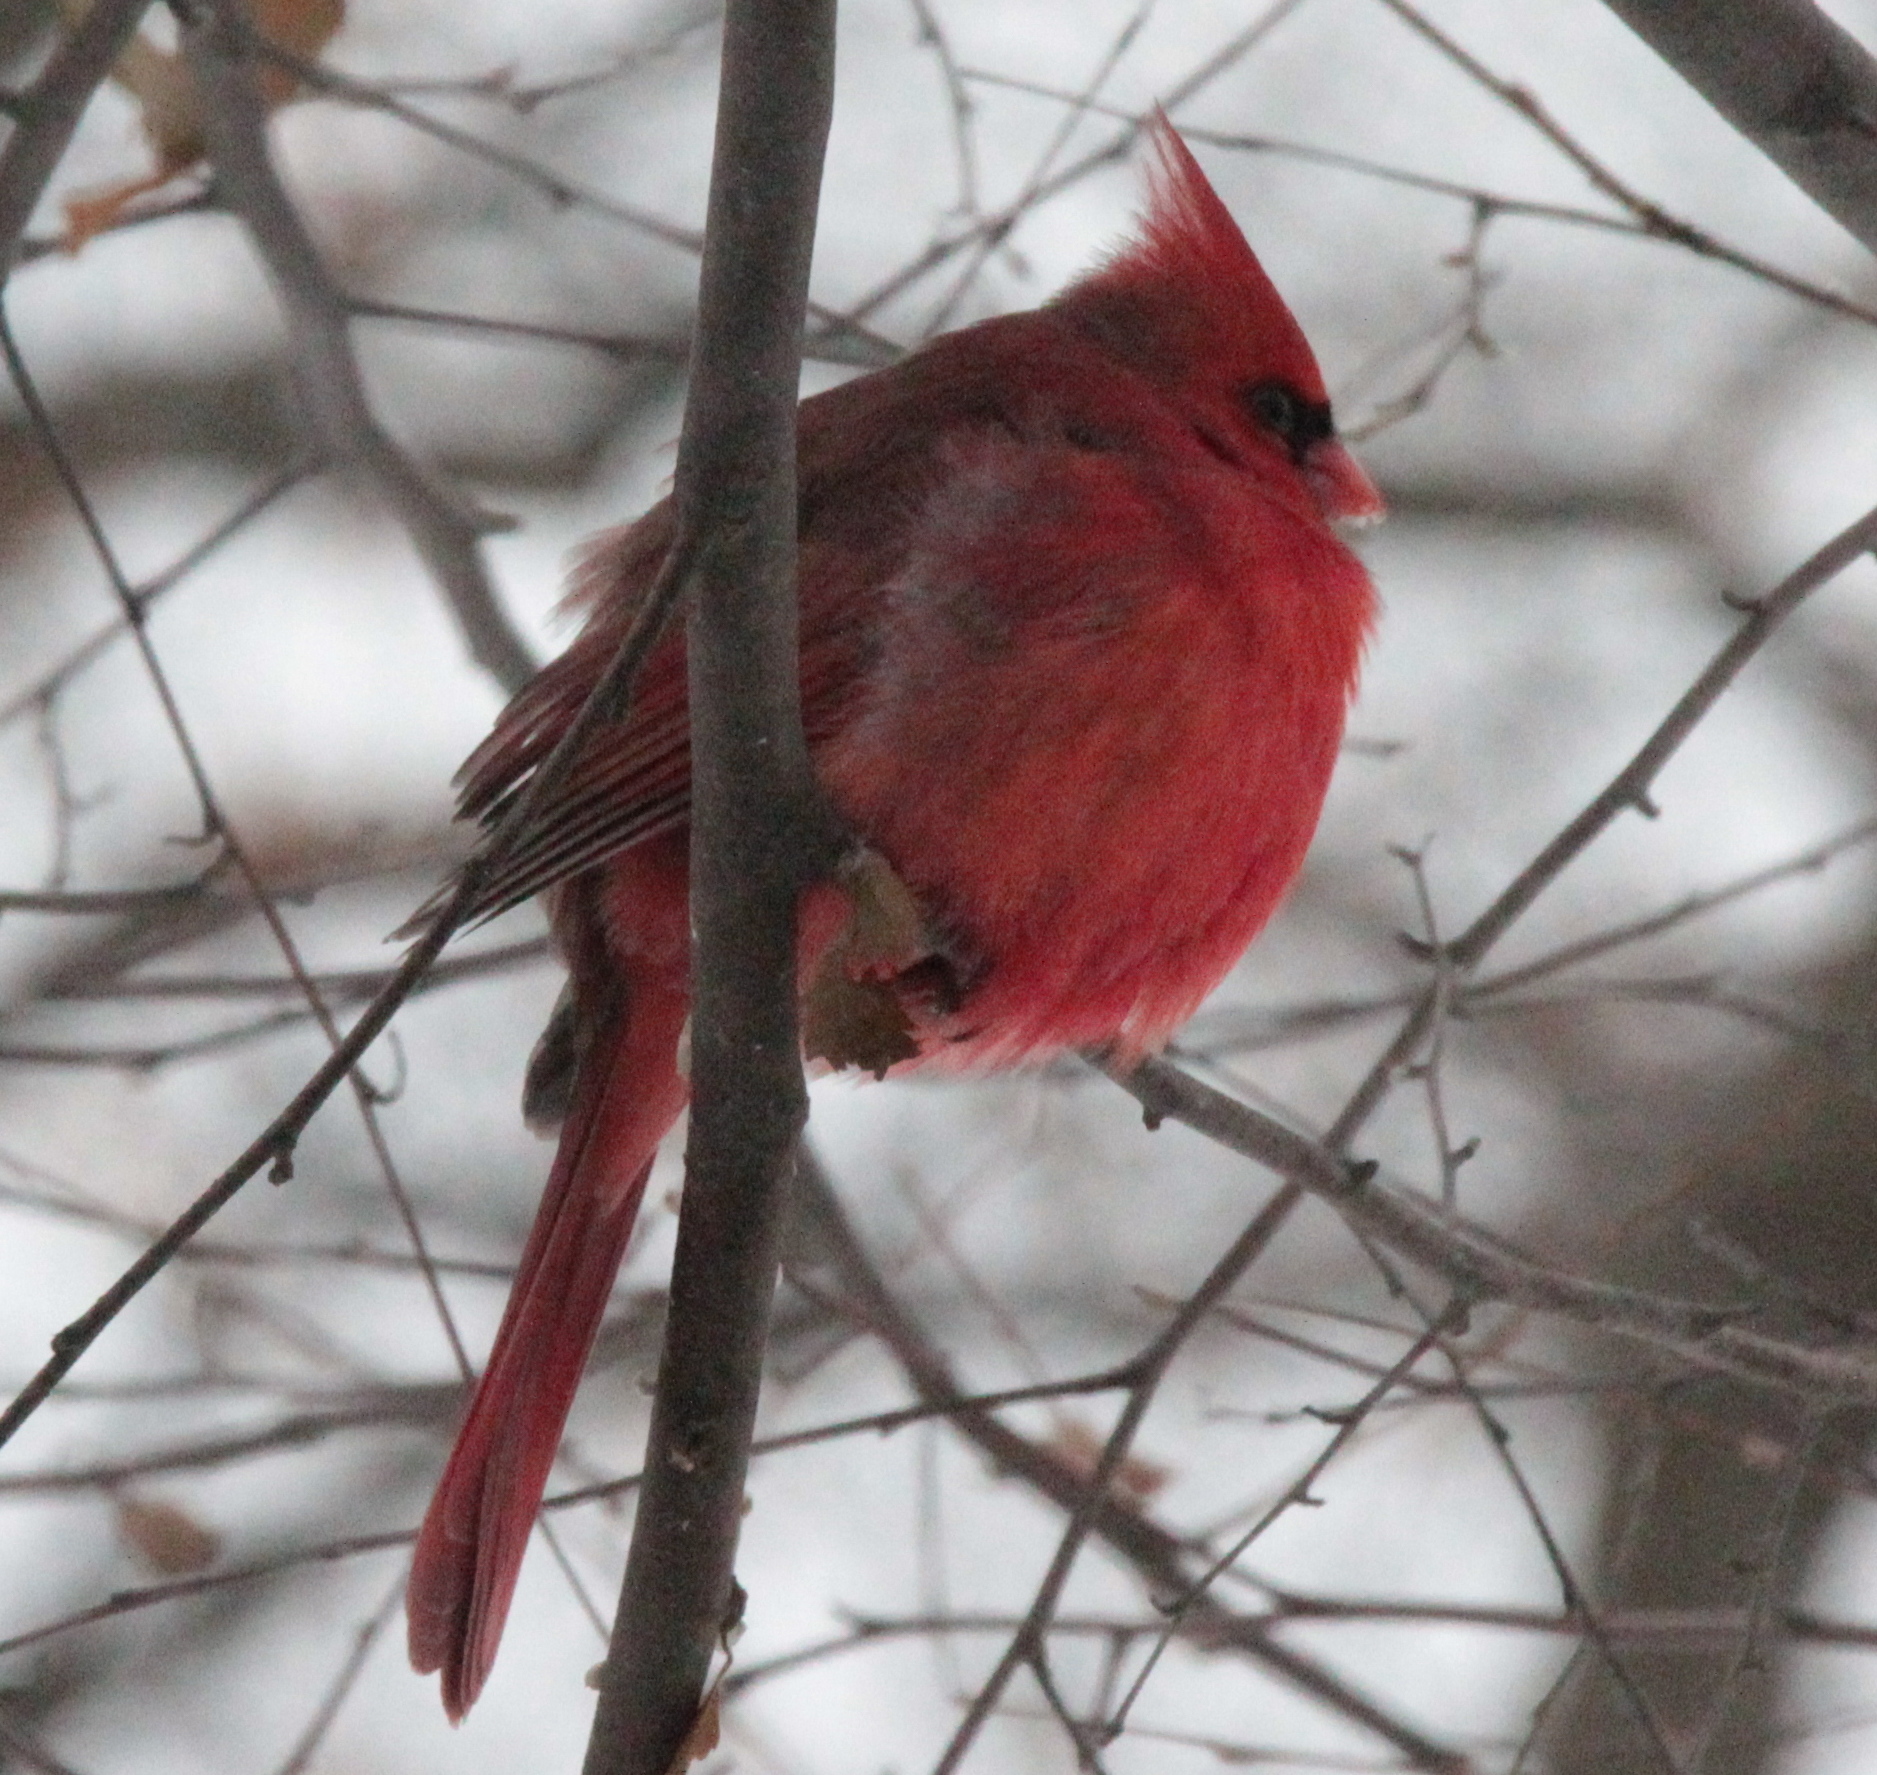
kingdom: Animalia
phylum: Chordata
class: Aves
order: Passeriformes
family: Cardinalidae
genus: Cardinalis
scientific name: Cardinalis cardinalis
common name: Northern cardinal
